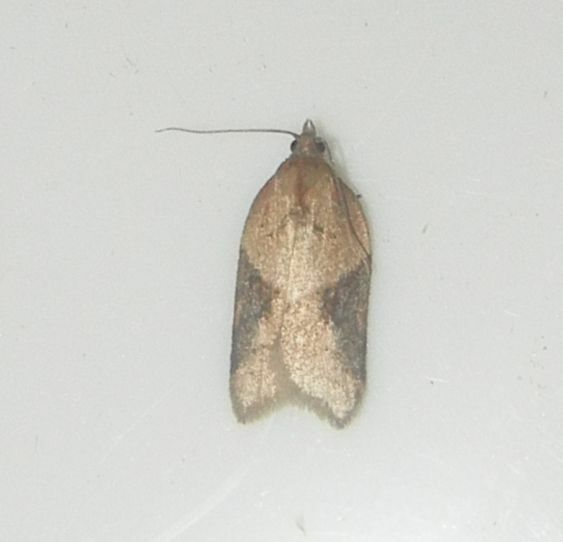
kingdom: Animalia
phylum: Arthropoda
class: Insecta
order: Lepidoptera
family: Tortricidae
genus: Acleris
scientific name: Acleris laterana
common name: Dark-triangle button
